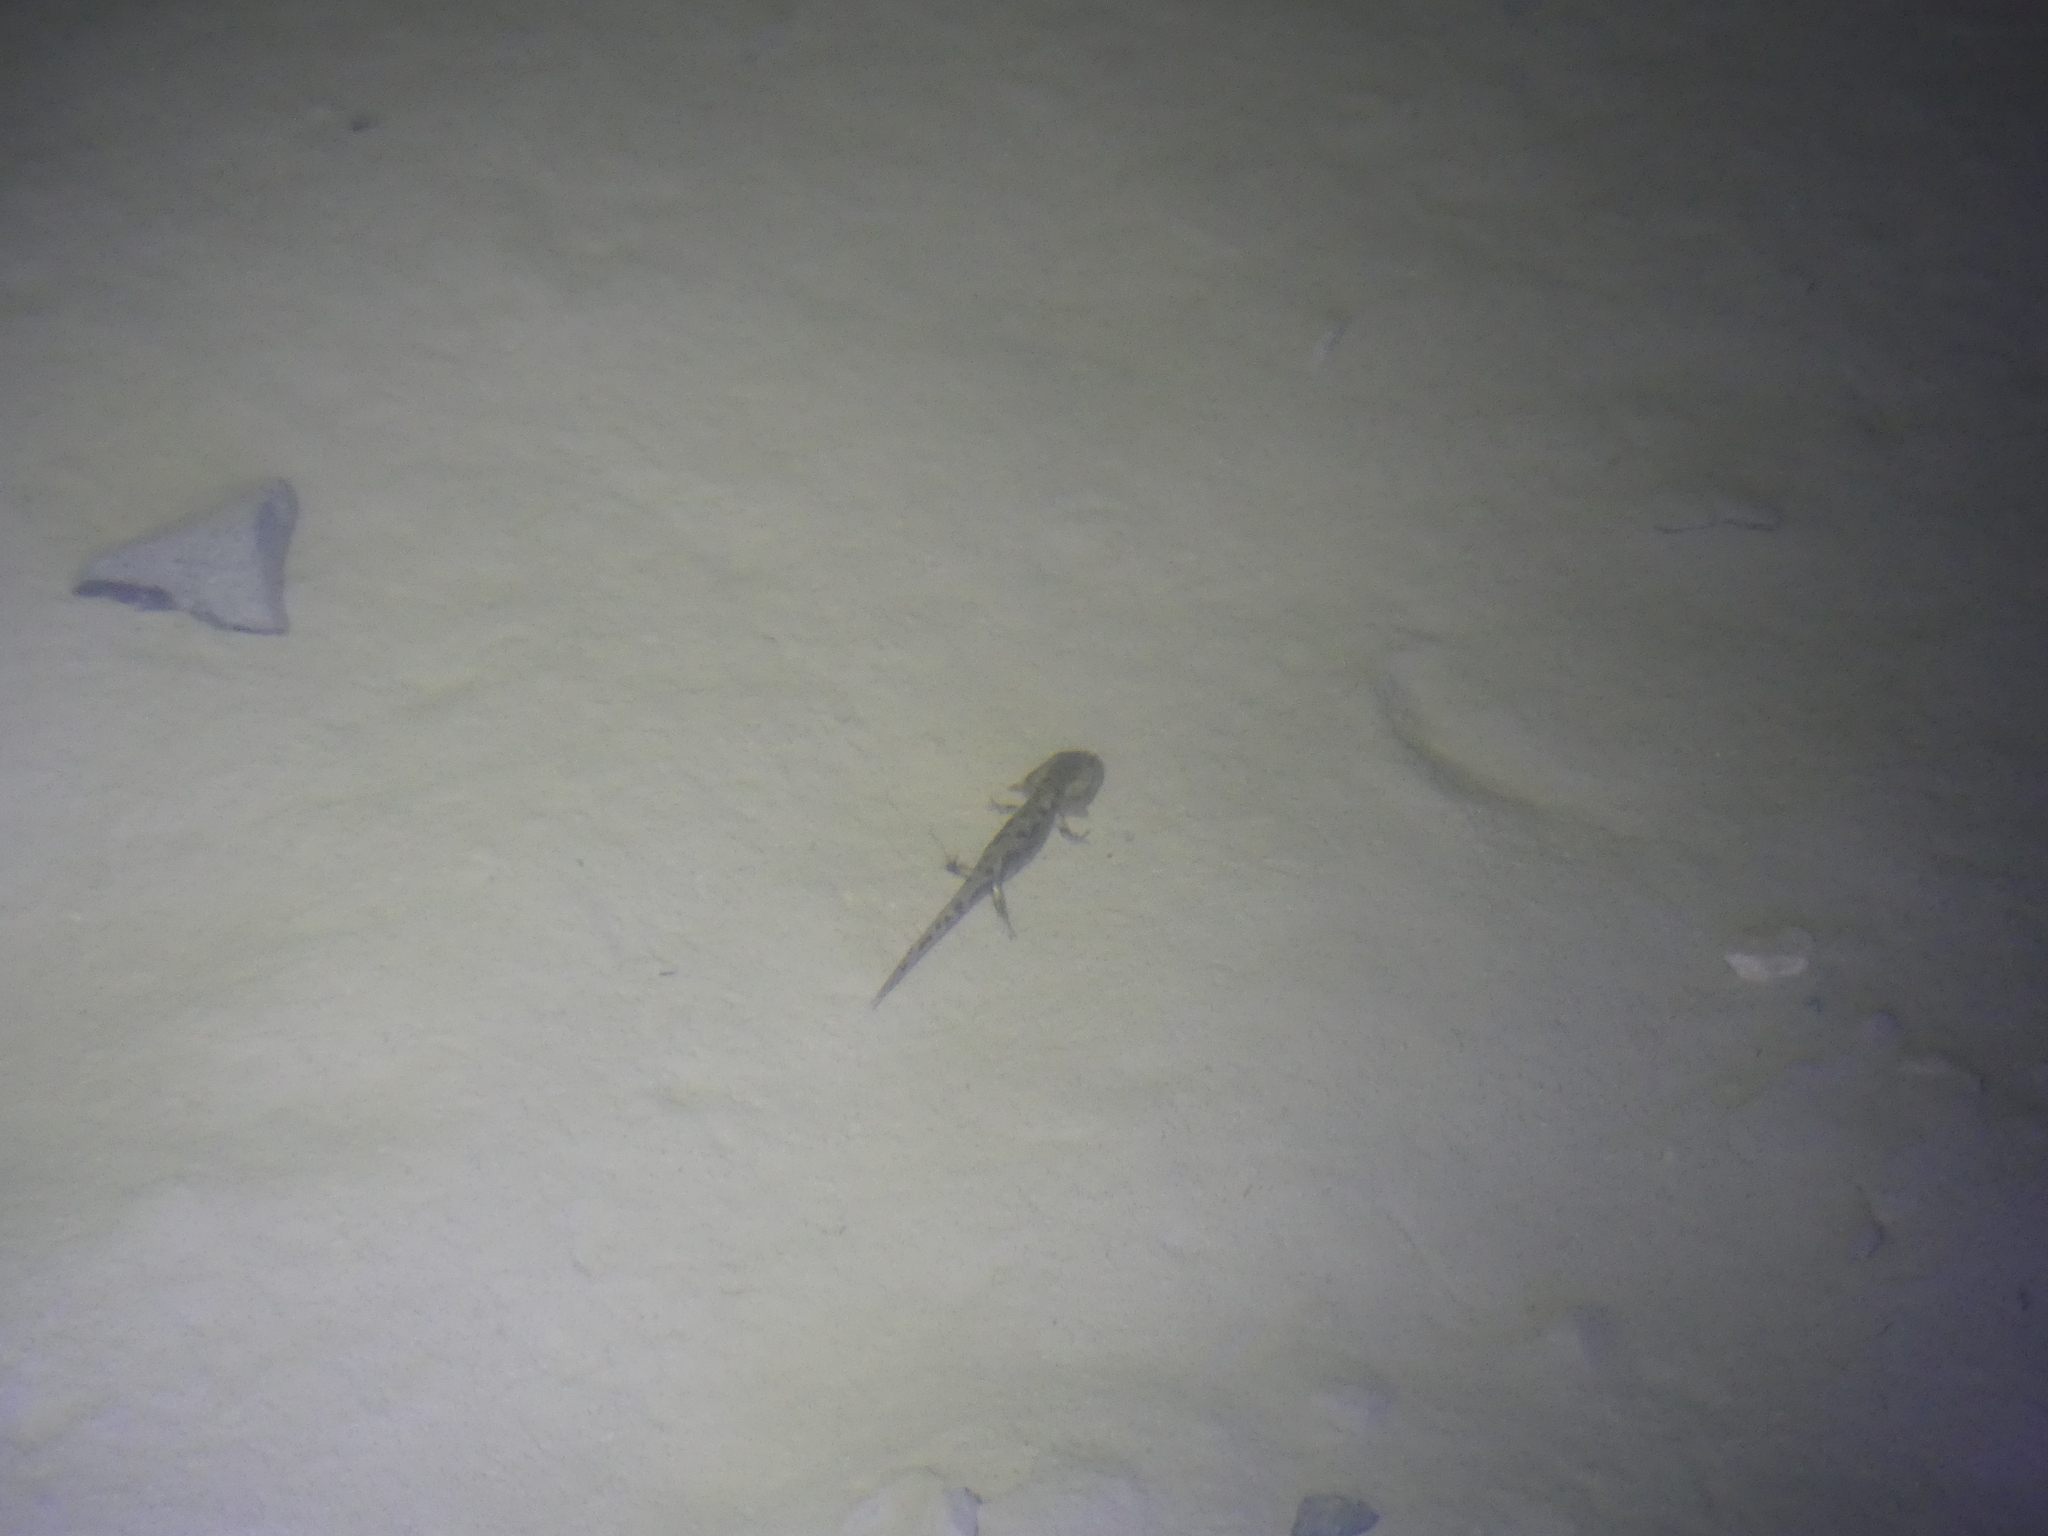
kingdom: Animalia
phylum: Chordata
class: Amphibia
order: Caudata
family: Salamandridae
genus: Salamandra
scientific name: Salamandra salamandra
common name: Fire salamander
